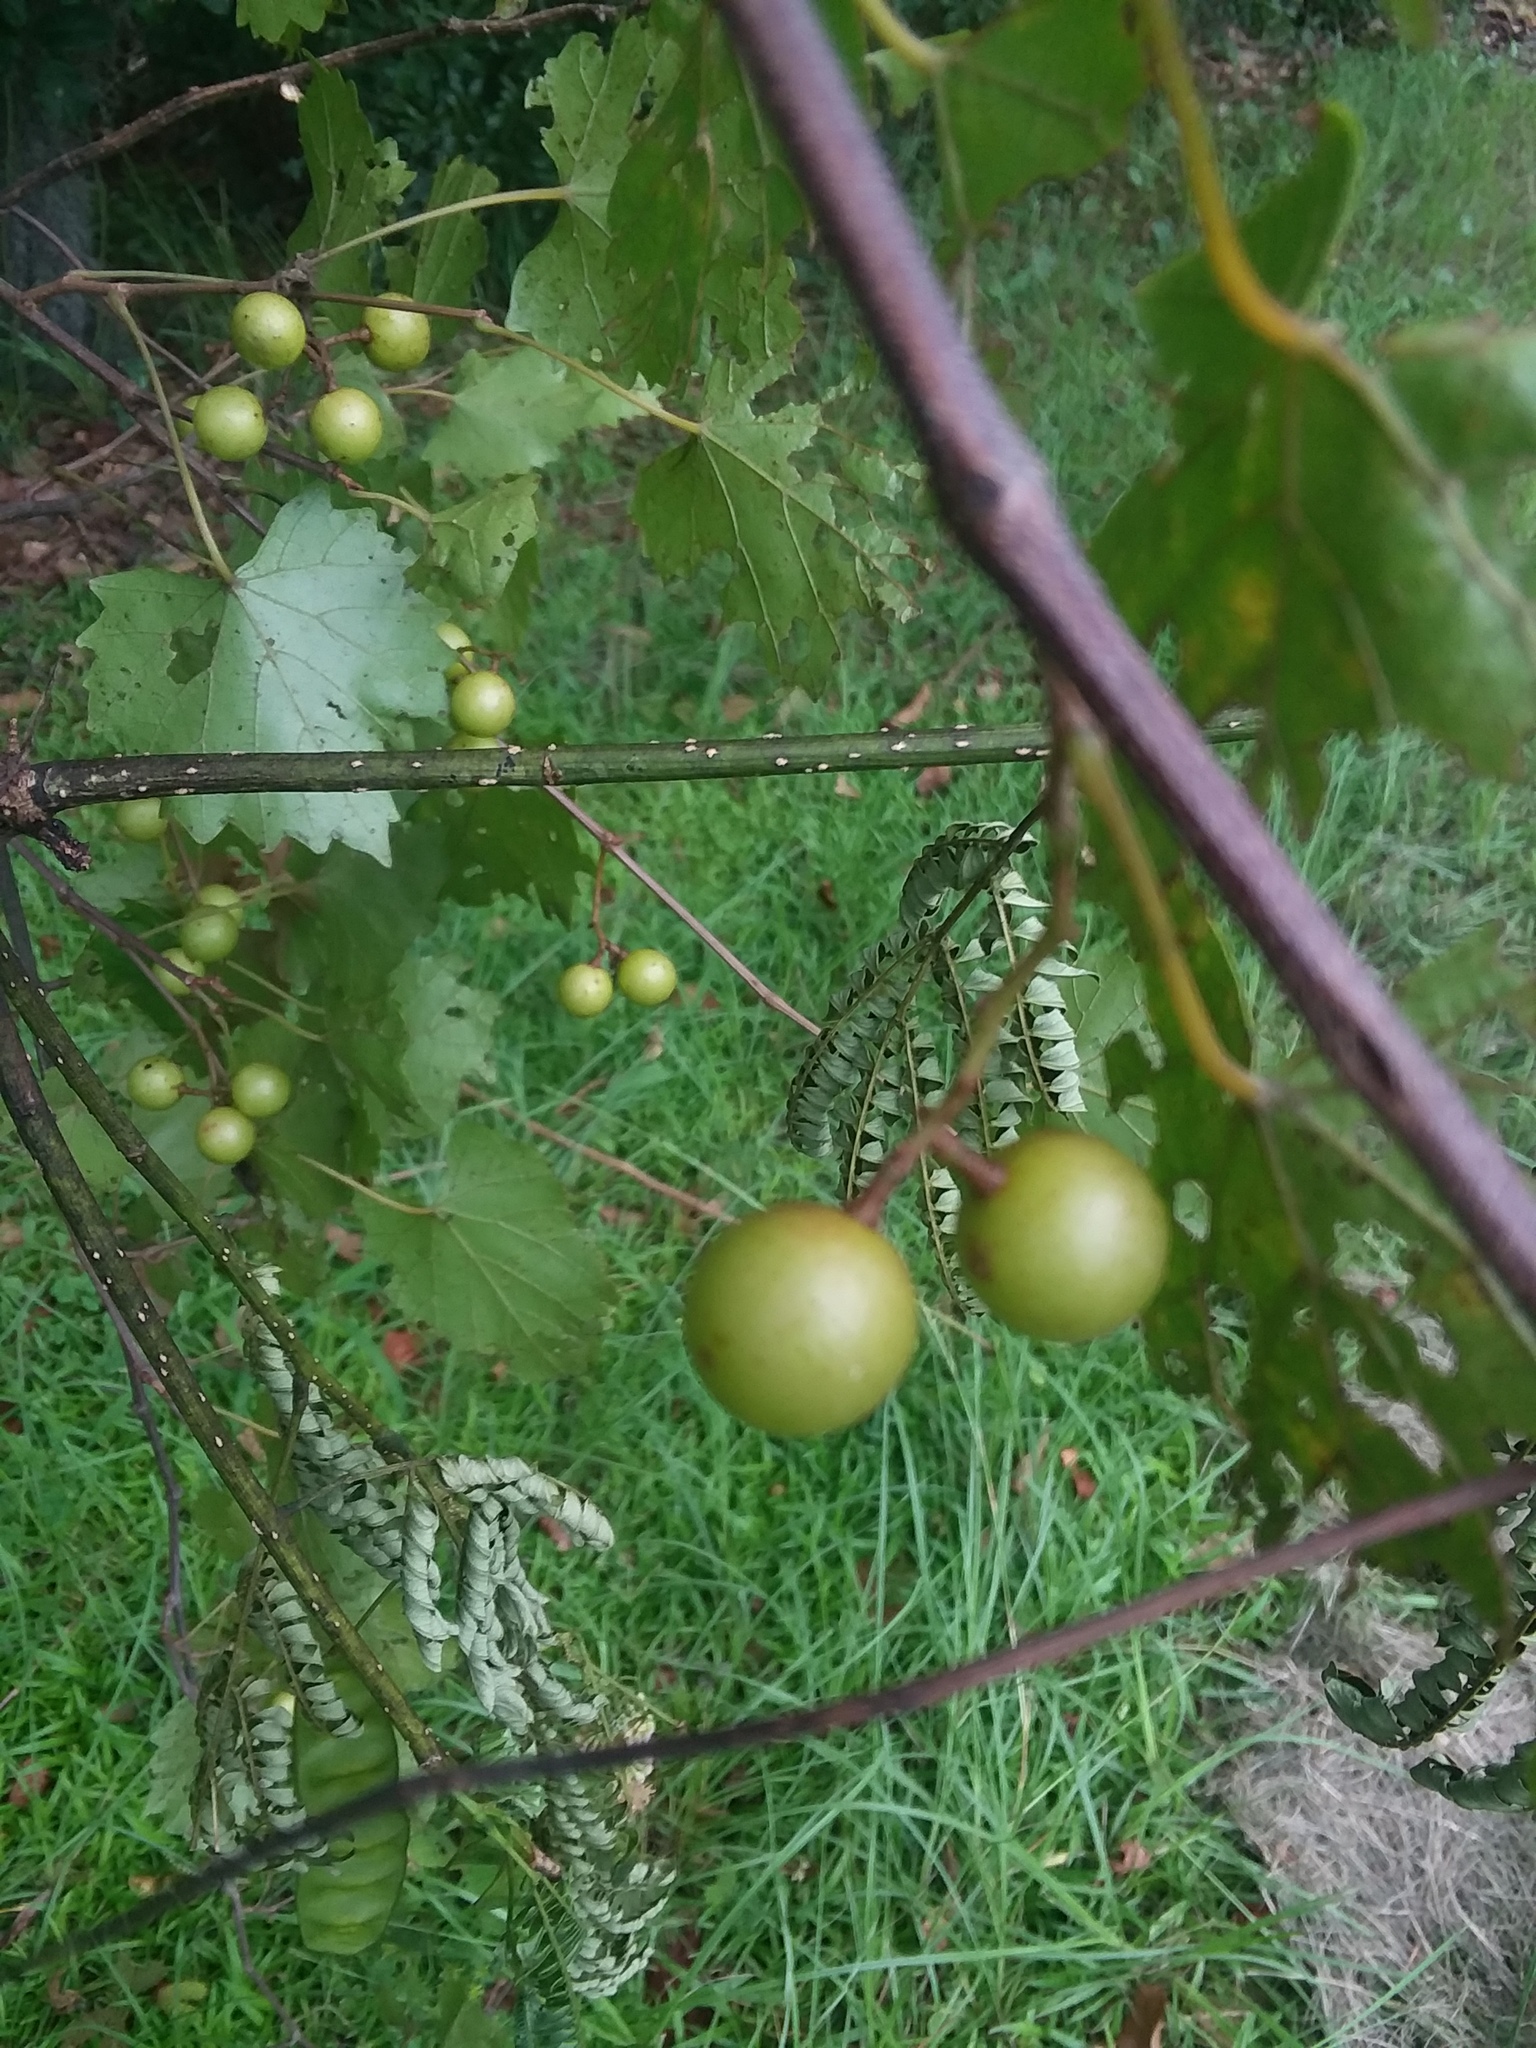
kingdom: Plantae
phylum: Tracheophyta
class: Magnoliopsida
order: Vitales
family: Vitaceae
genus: Vitis
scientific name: Vitis rotundifolia
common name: Muscadine grape
